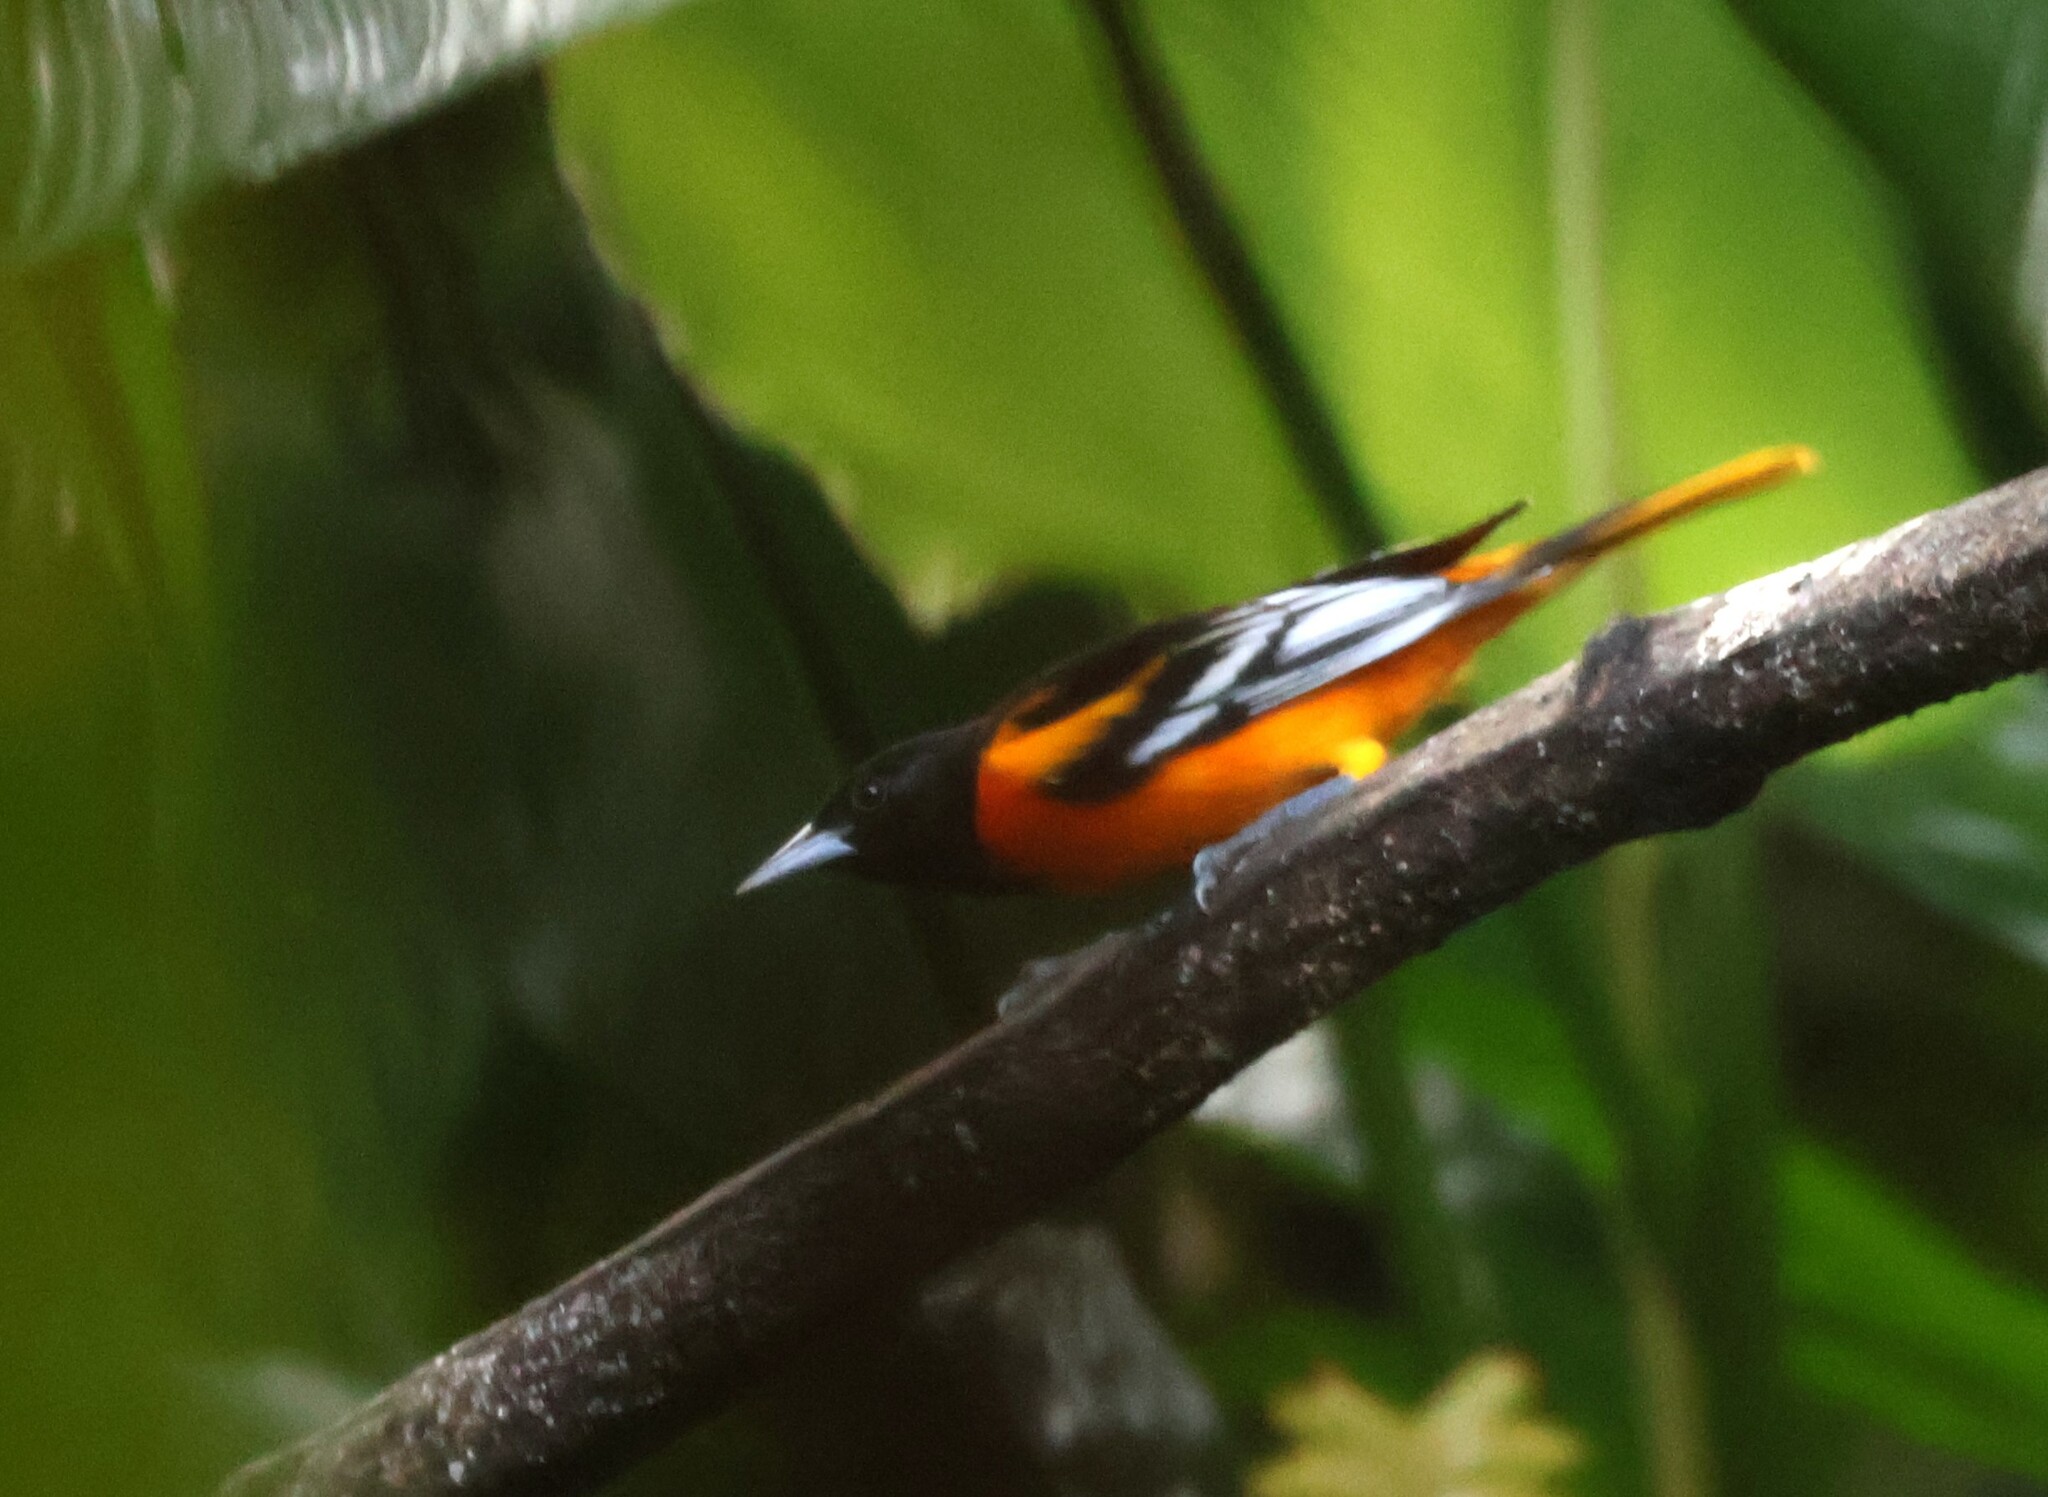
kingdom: Animalia
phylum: Chordata
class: Aves
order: Passeriformes
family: Icteridae
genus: Icterus
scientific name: Icterus galbula
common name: Baltimore oriole
